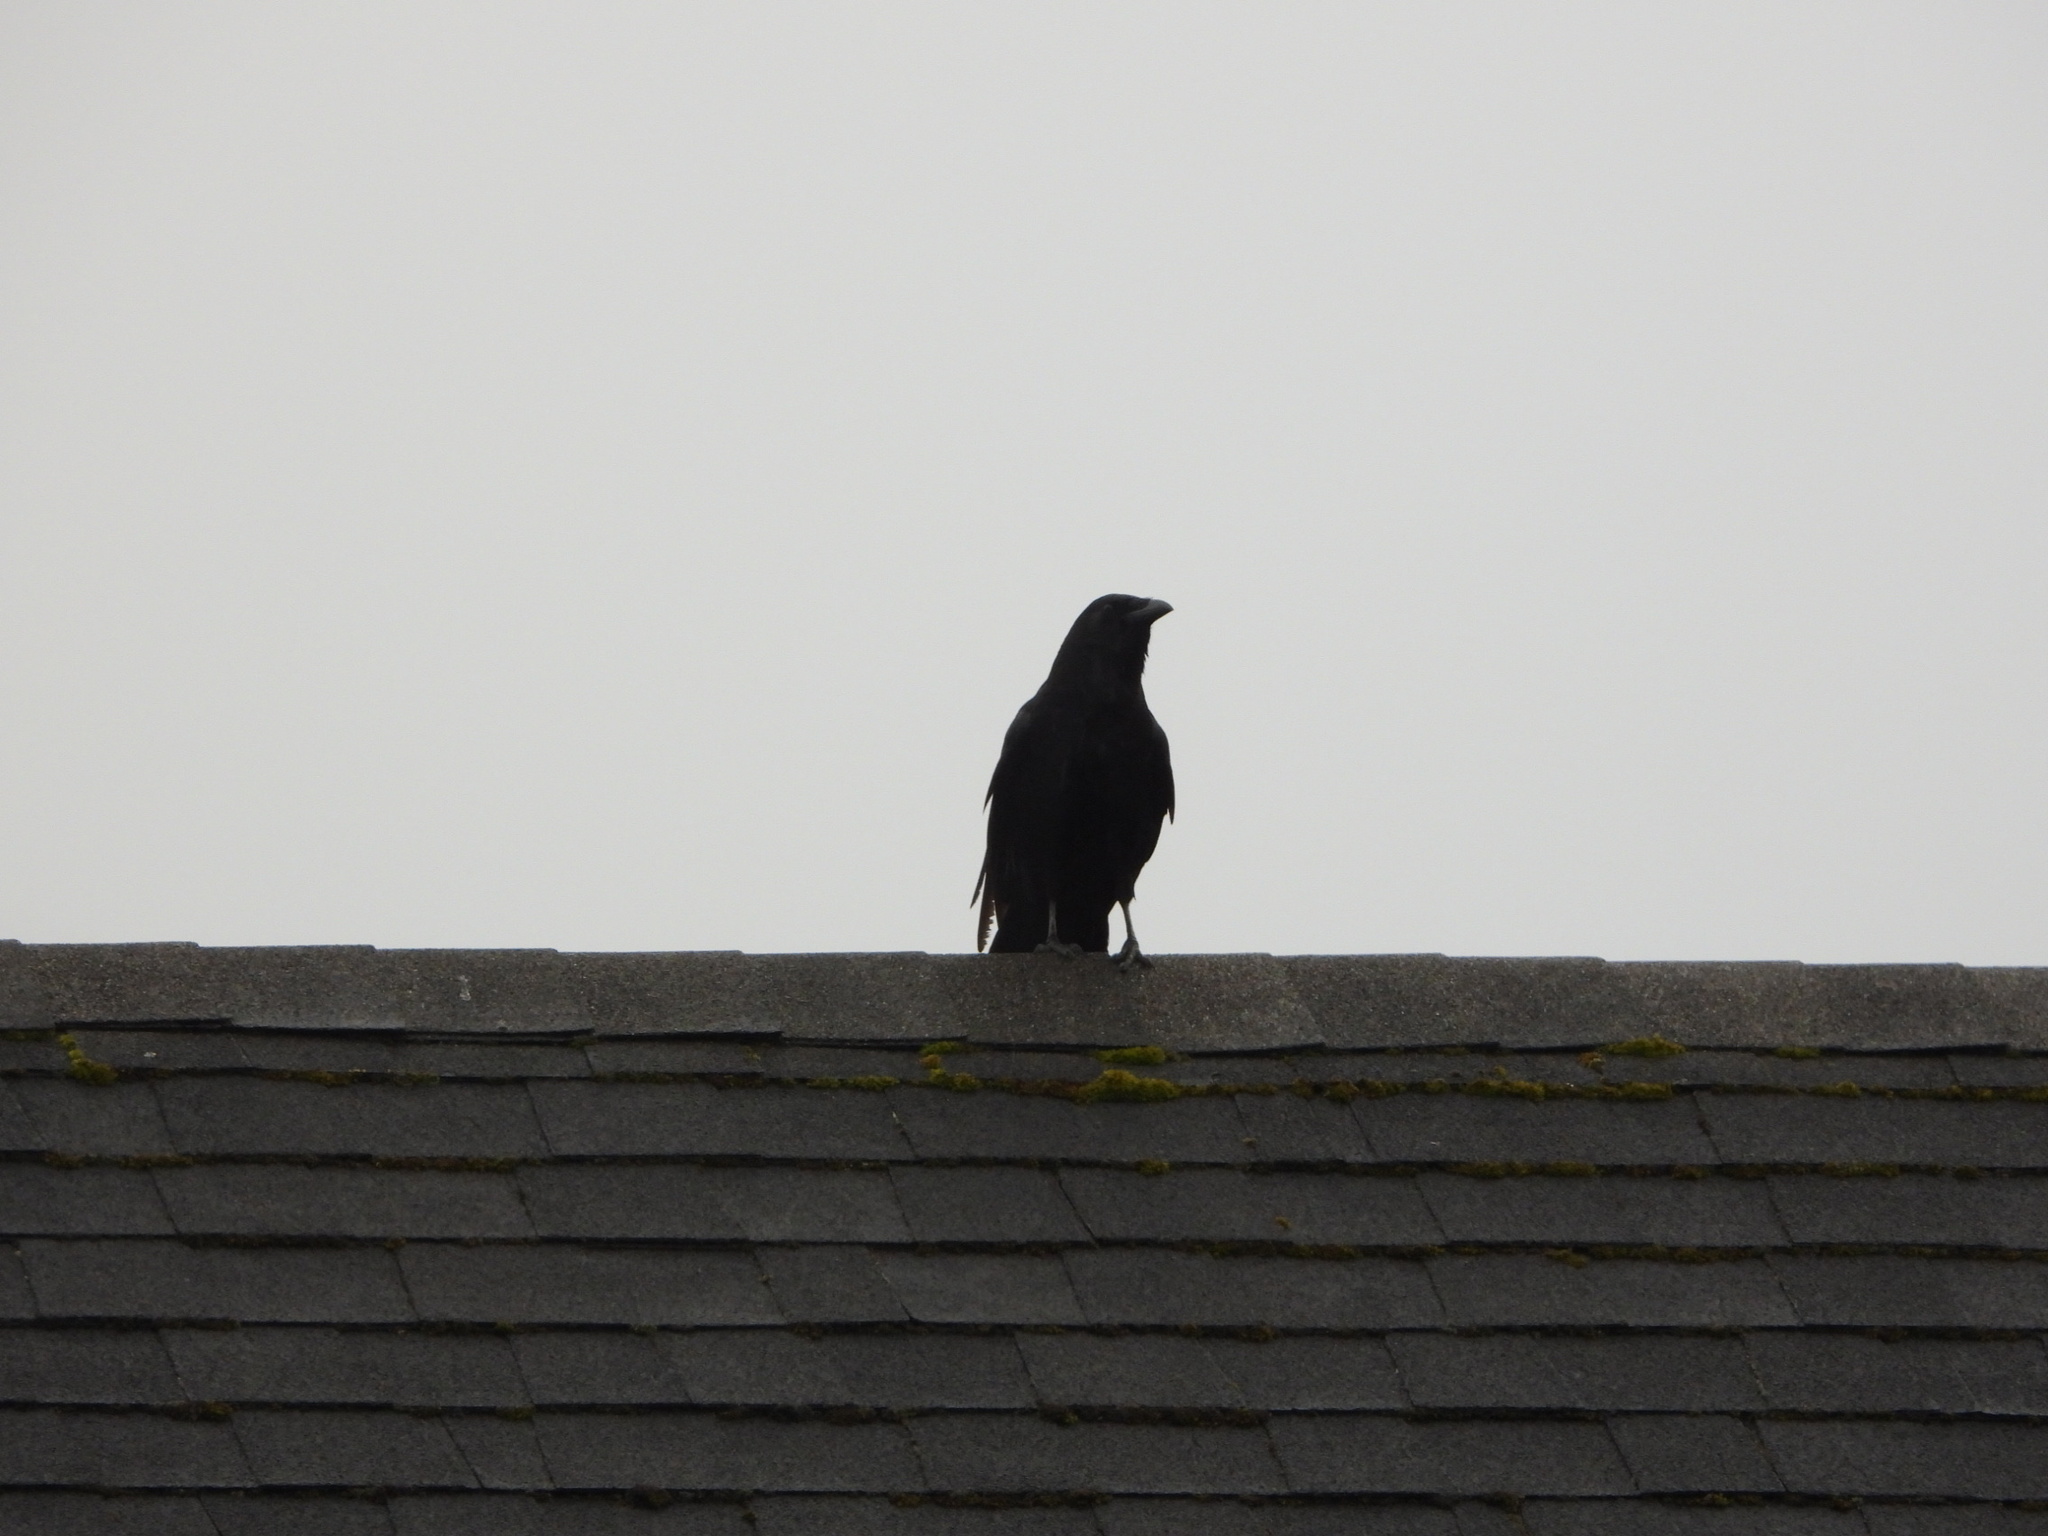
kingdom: Animalia
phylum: Chordata
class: Aves
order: Passeriformes
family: Corvidae
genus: Corvus
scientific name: Corvus brachyrhynchos
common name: American crow
